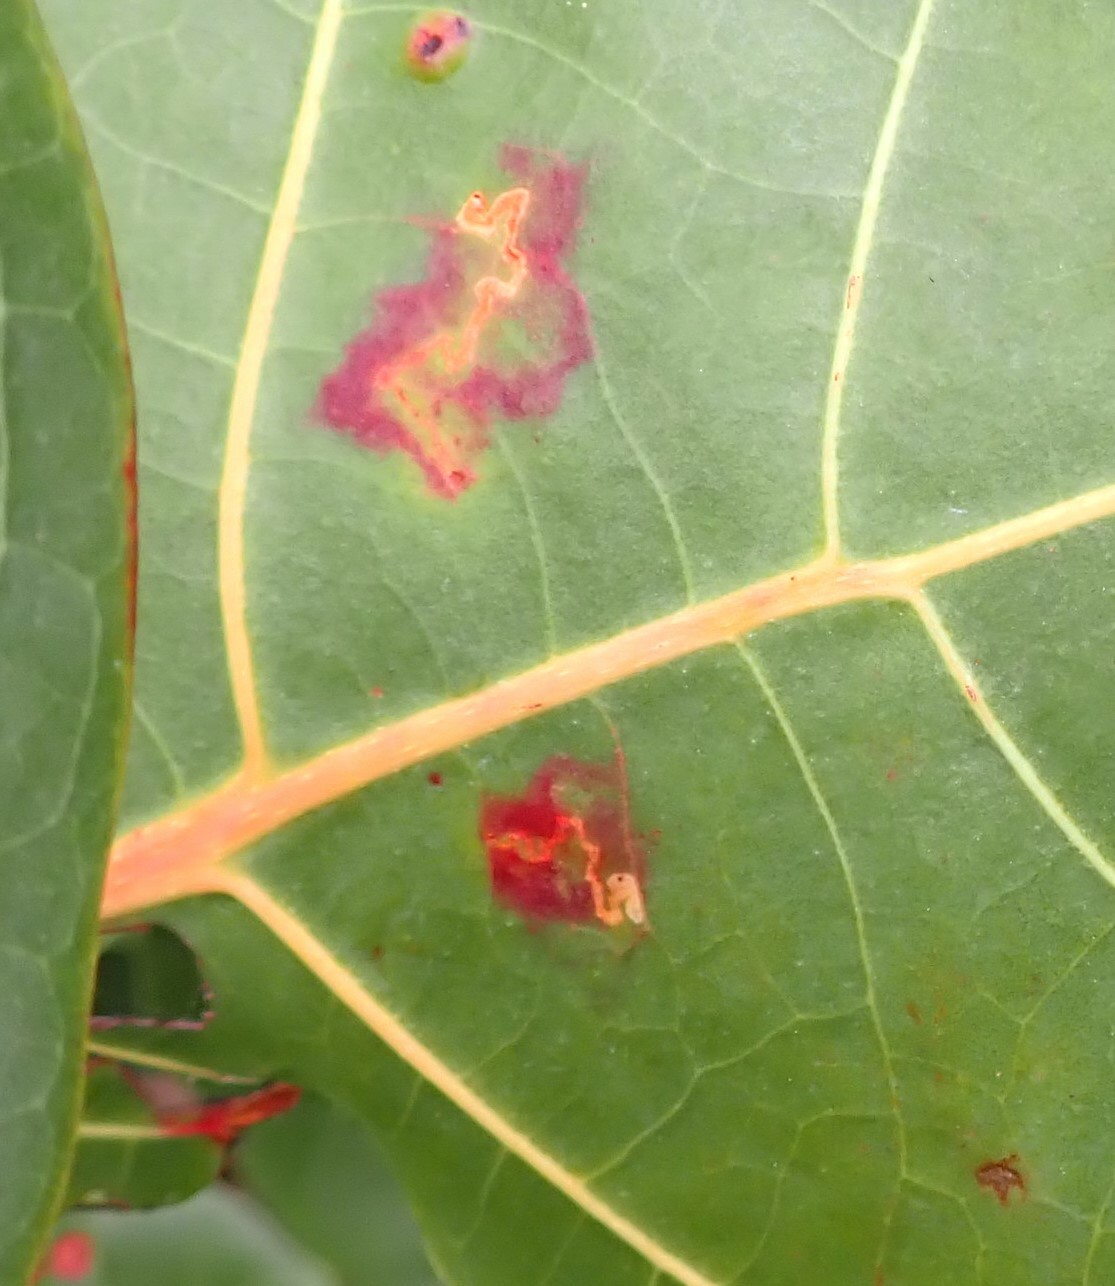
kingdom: Animalia
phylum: Arthropoda
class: Insecta
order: Lepidoptera
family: Nepticulidae
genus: Enteucha
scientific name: Enteucha gilvafascia
